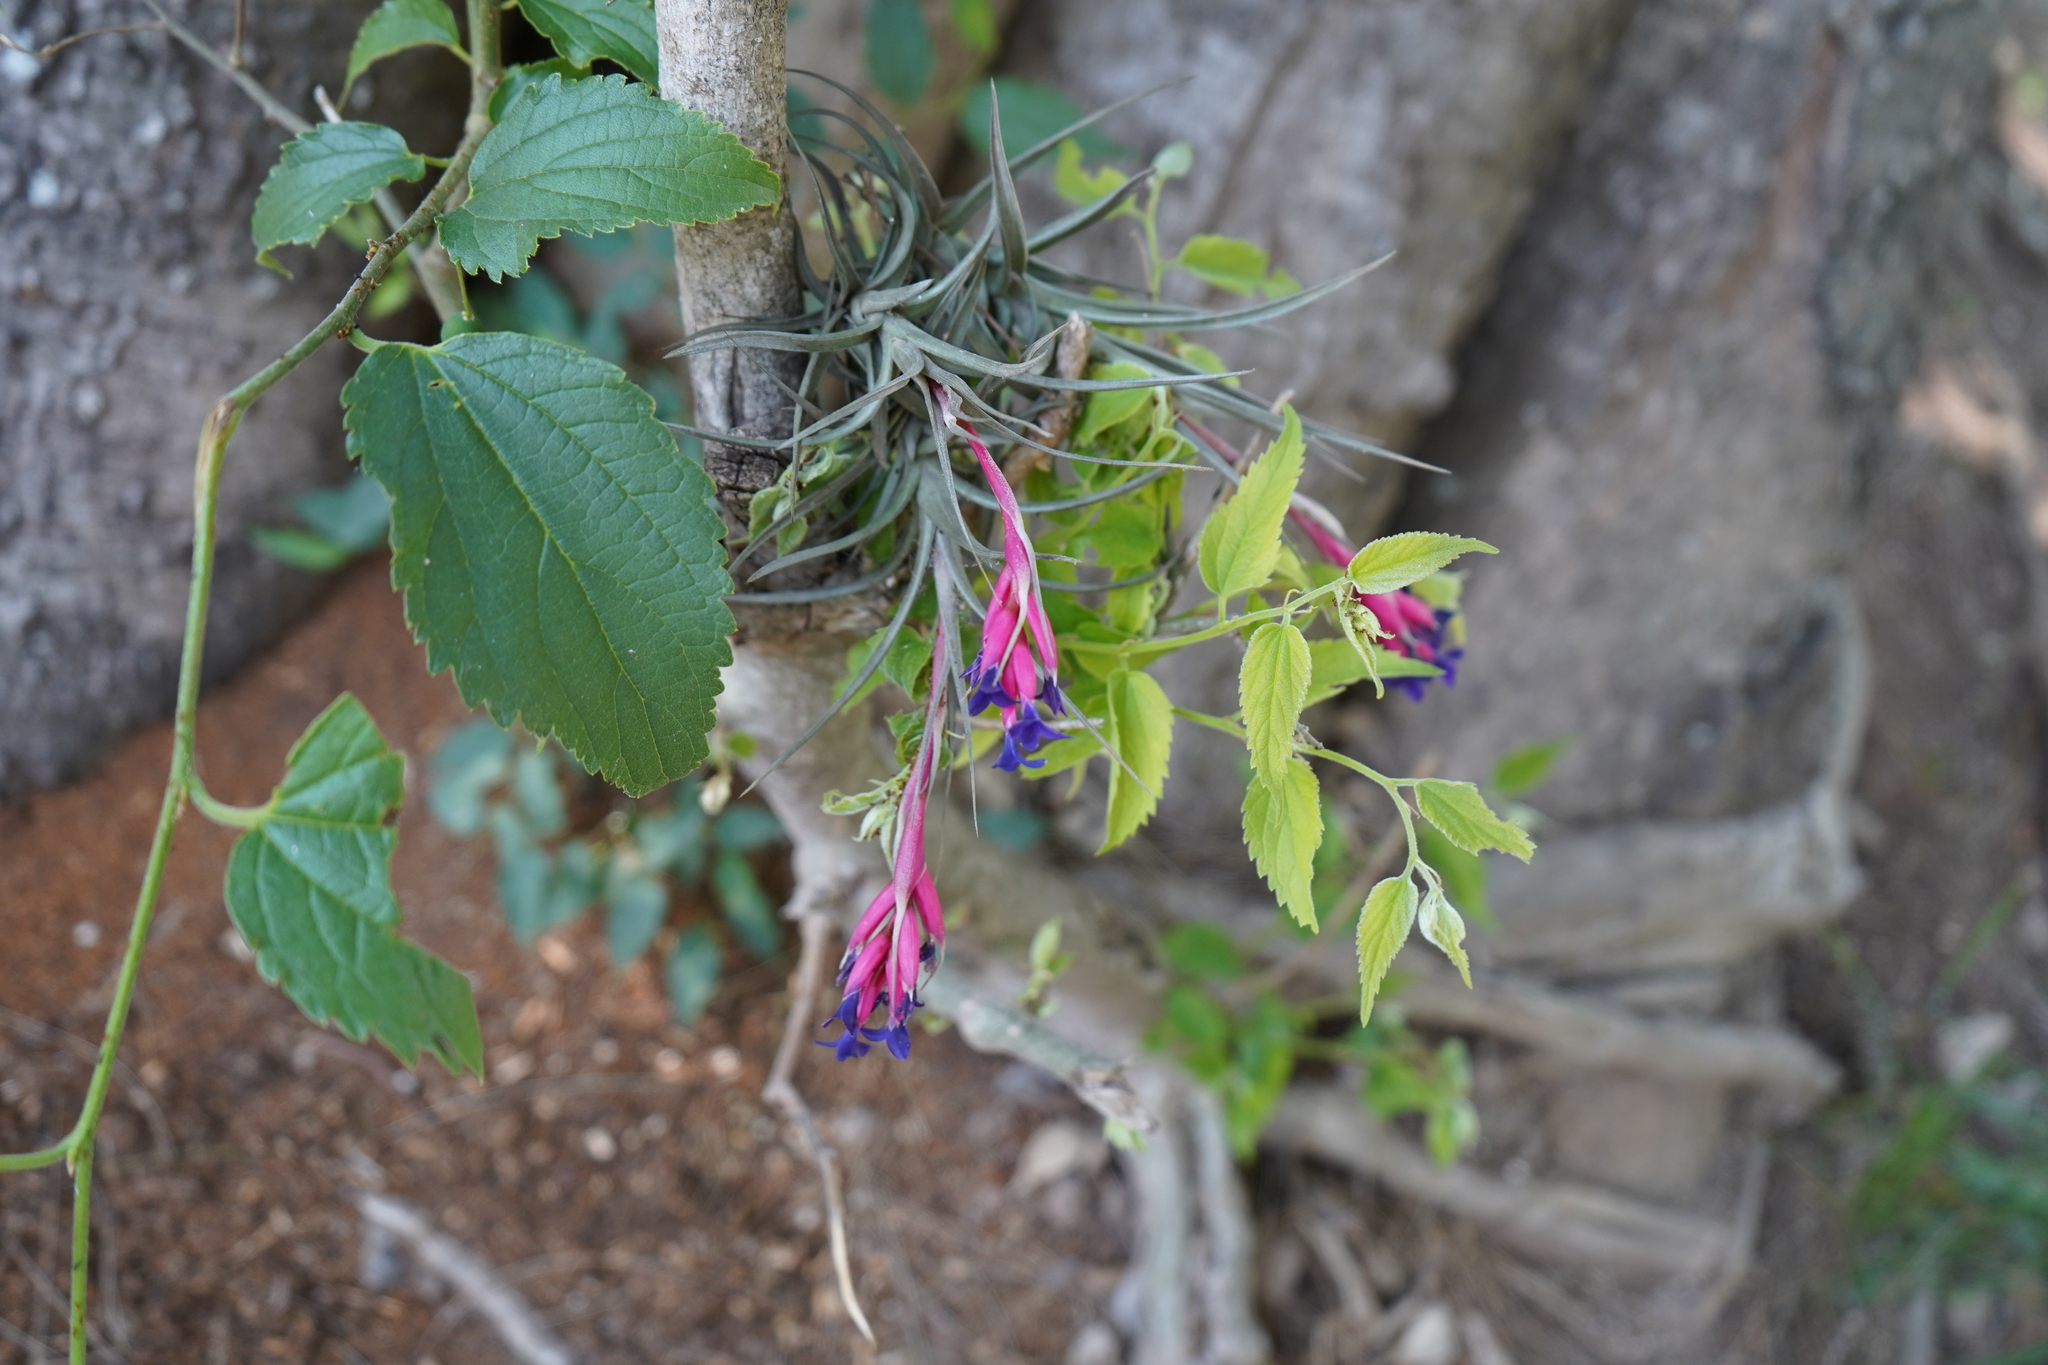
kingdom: Plantae
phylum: Tracheophyta
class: Liliopsida
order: Poales
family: Bromeliaceae
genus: Tillandsia
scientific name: Tillandsia aeranthos
